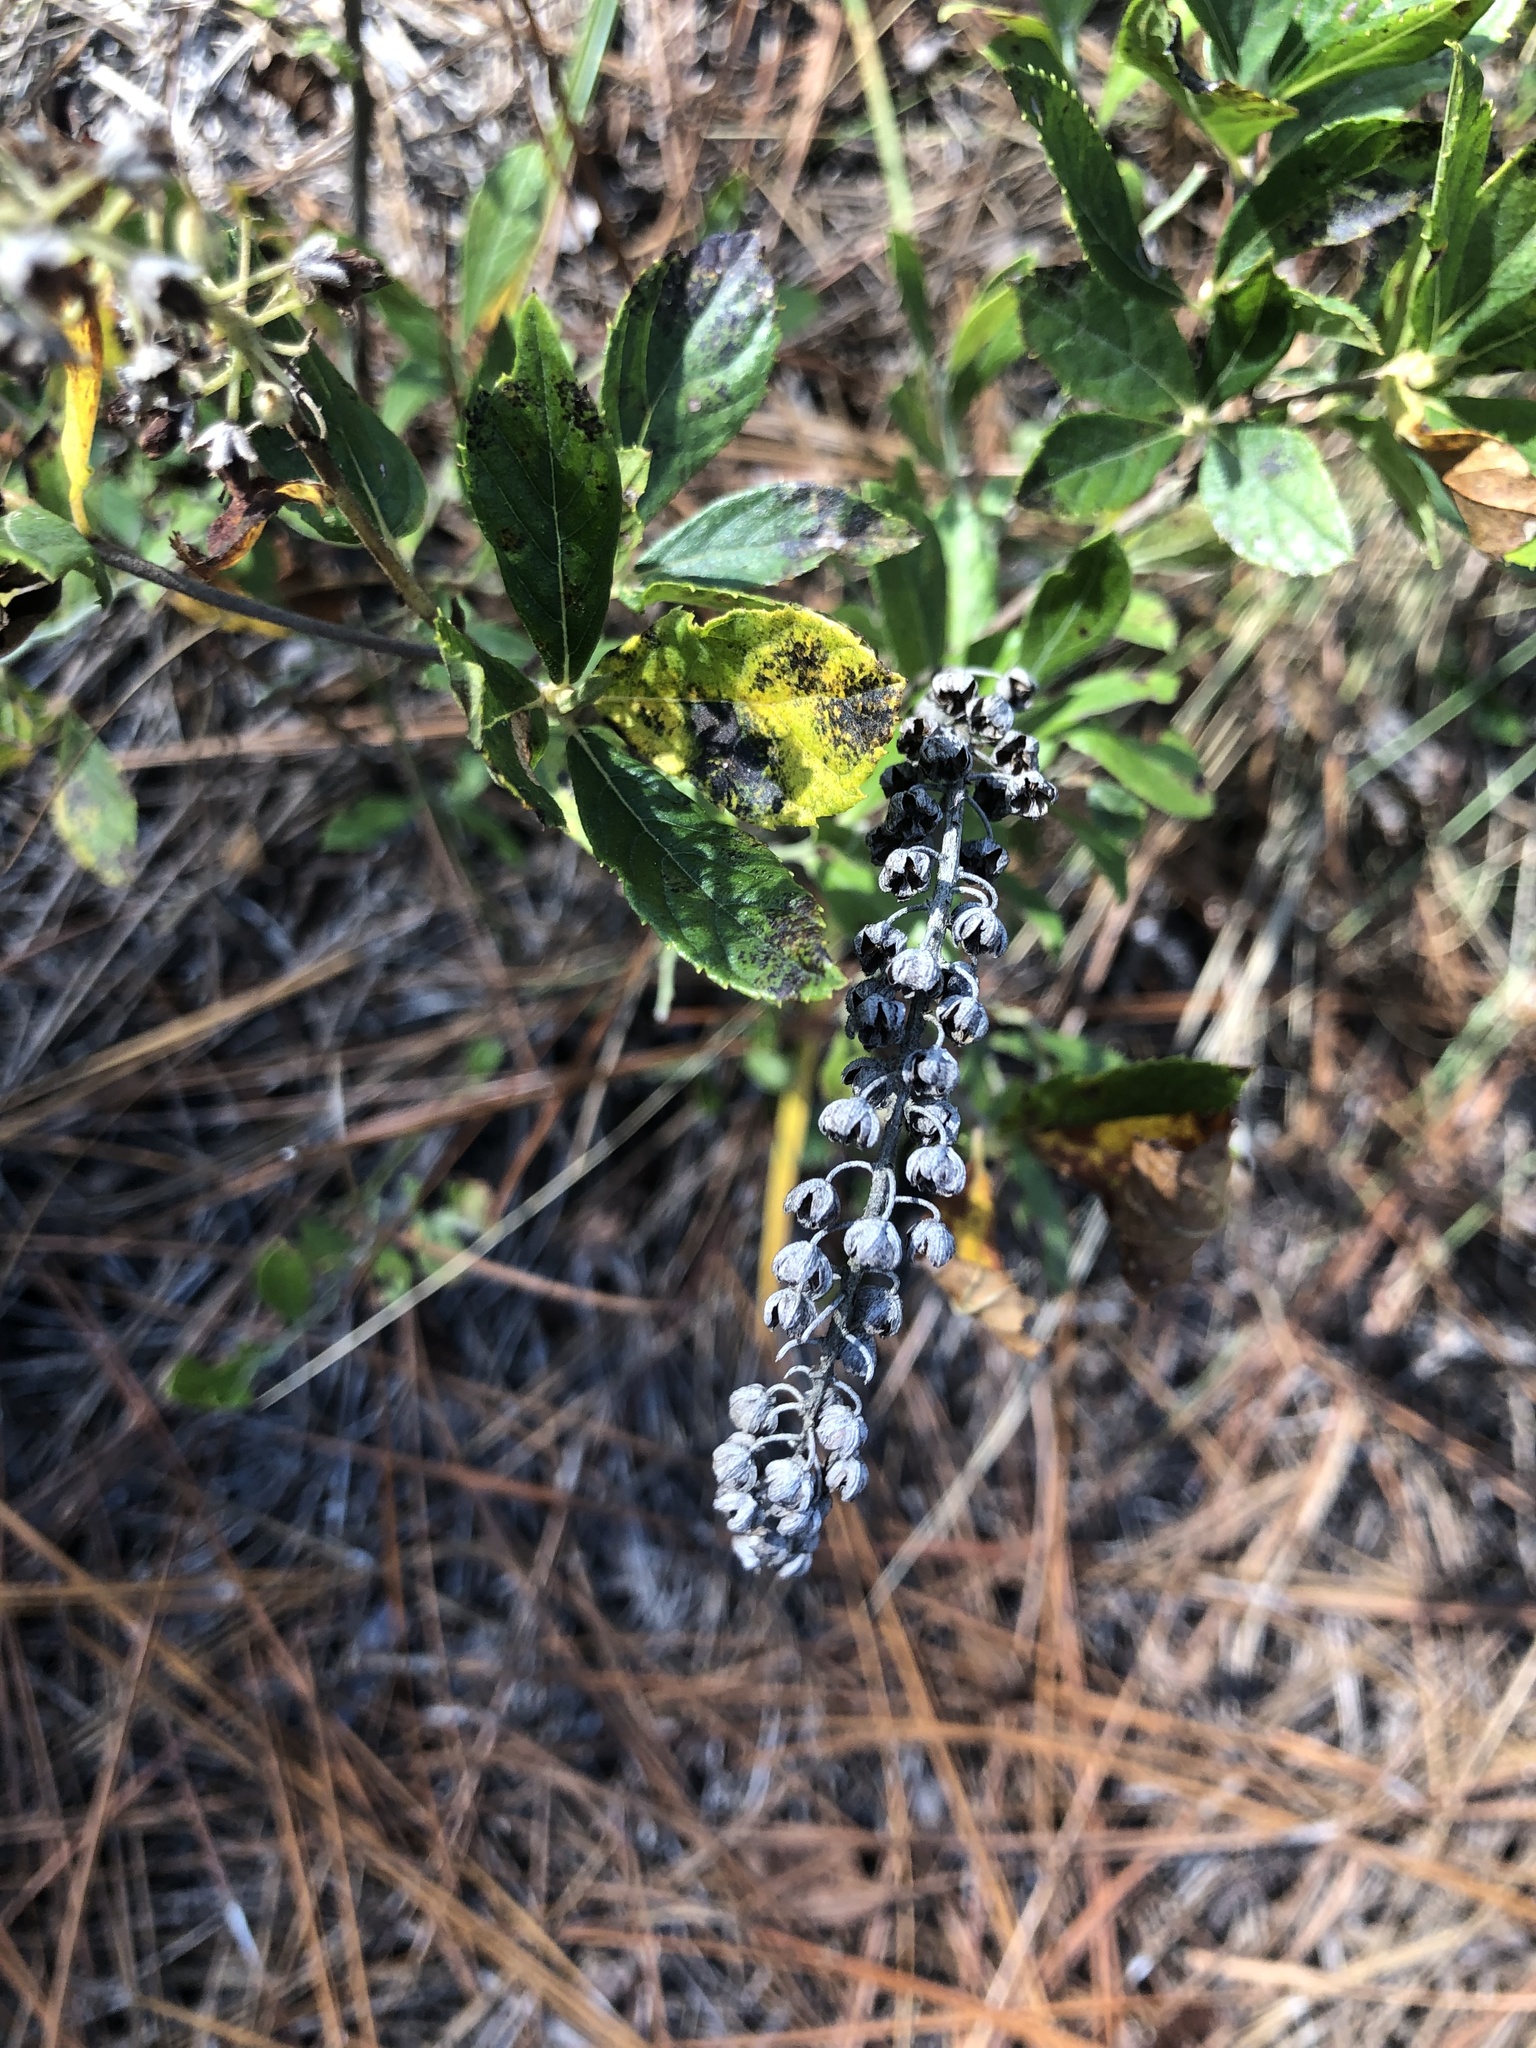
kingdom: Plantae
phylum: Tracheophyta
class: Magnoliopsida
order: Ericales
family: Clethraceae
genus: Clethra
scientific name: Clethra alnifolia
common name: Sweet pepperbush
